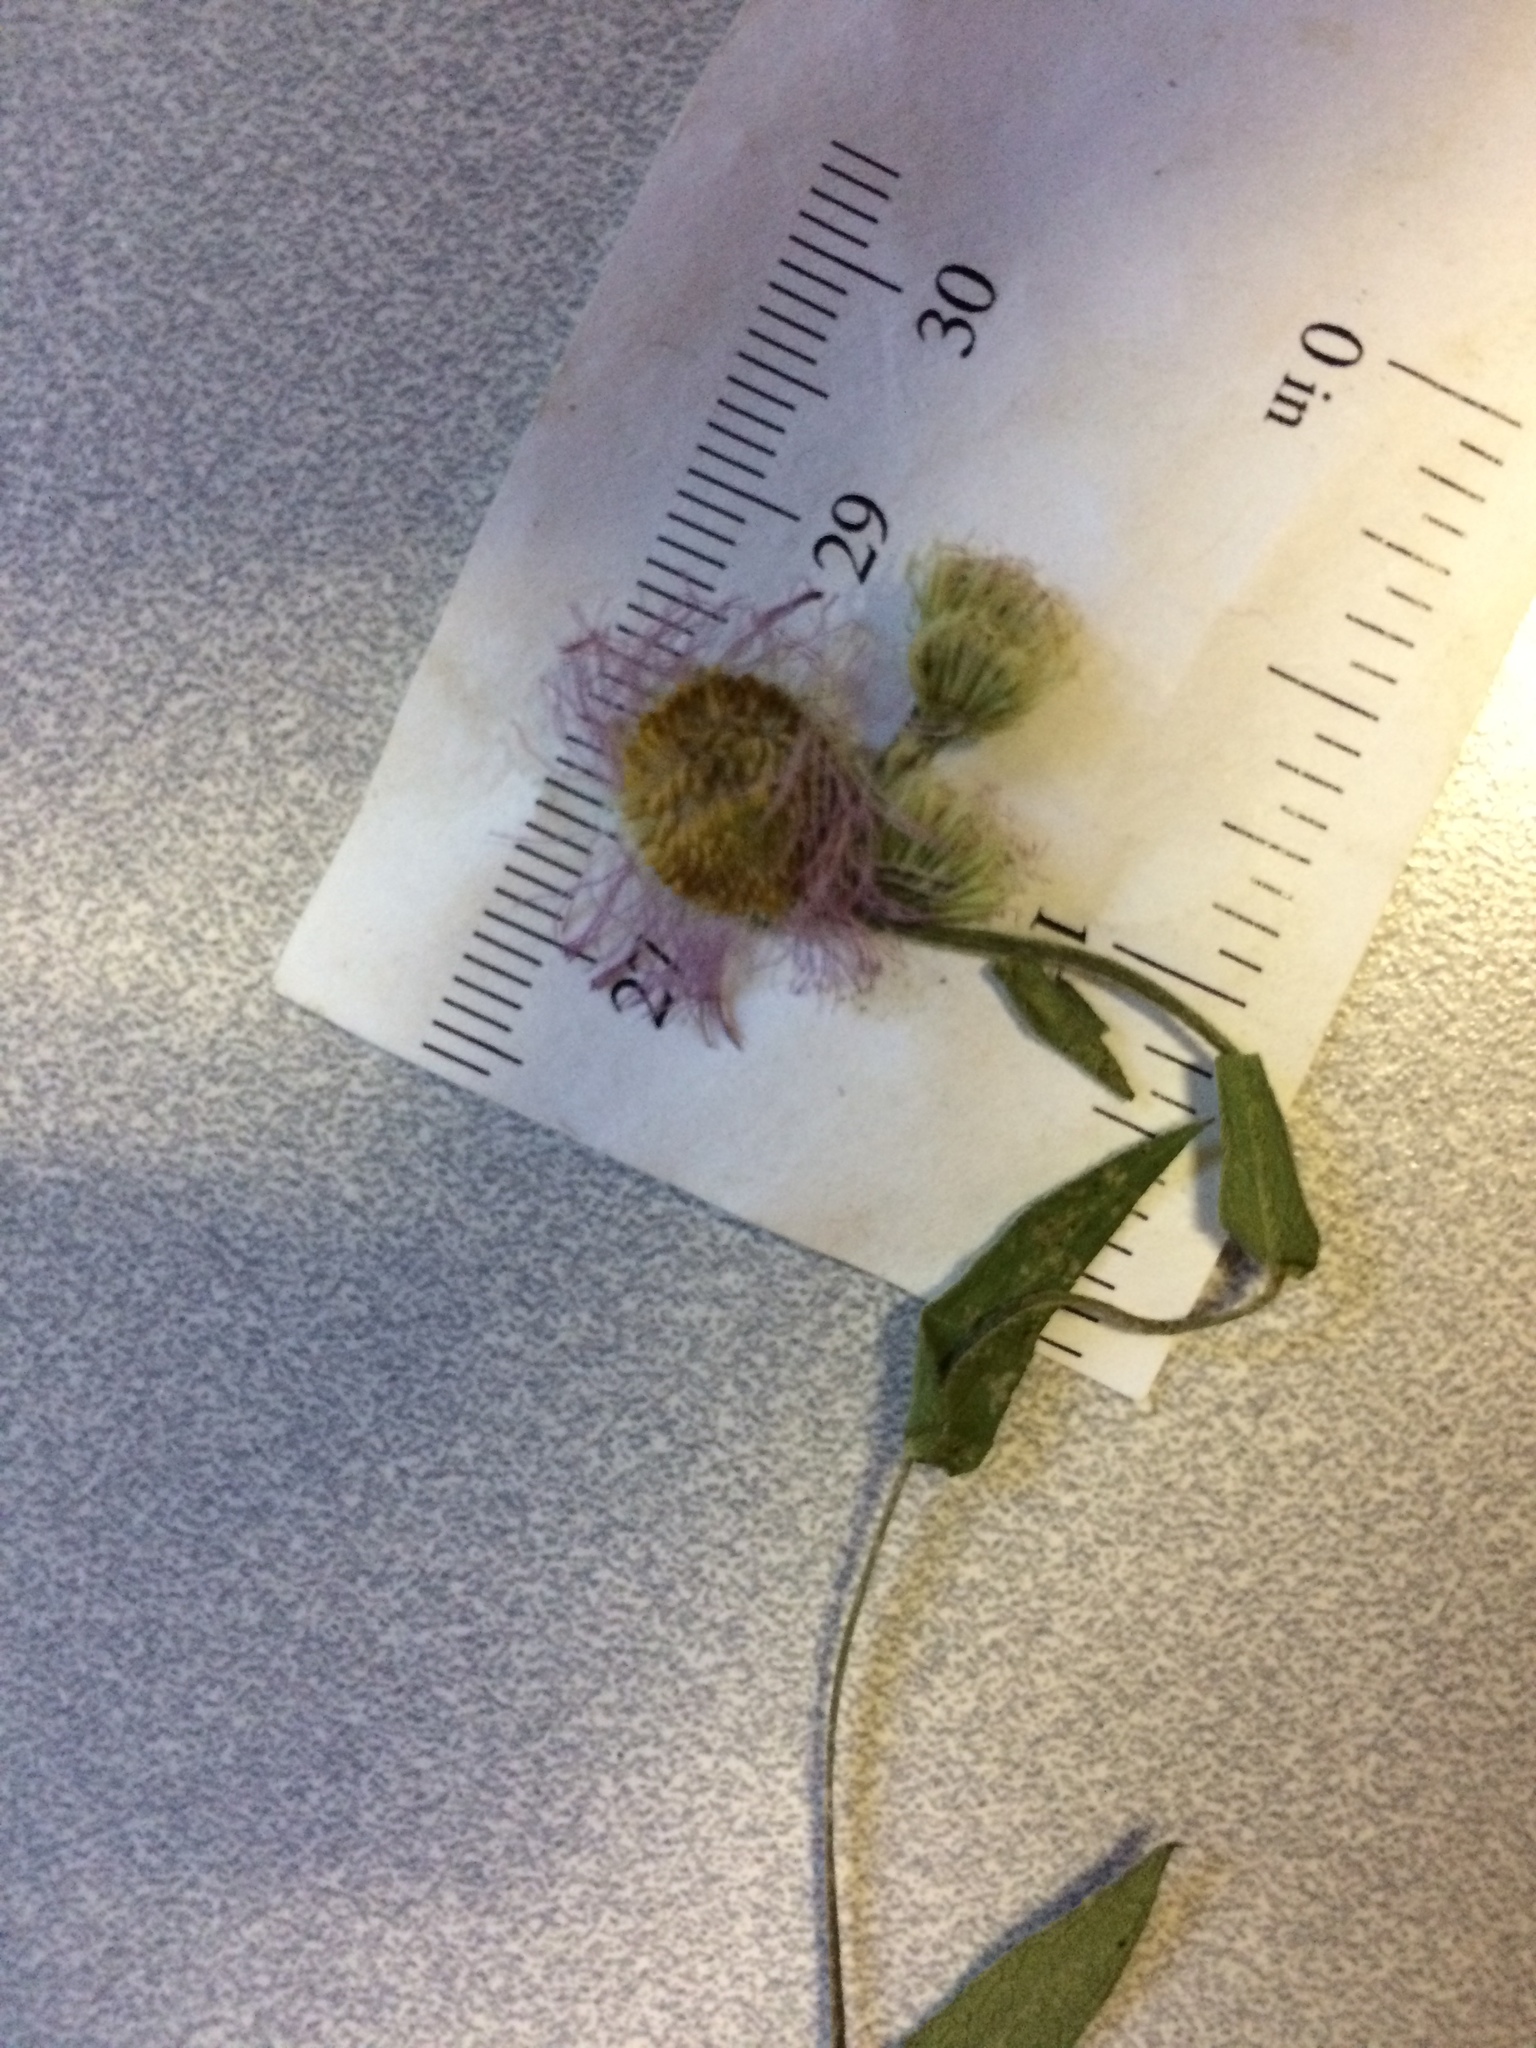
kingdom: Plantae
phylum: Tracheophyta
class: Magnoliopsida
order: Asterales
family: Asteraceae
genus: Erigeron
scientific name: Erigeron philadelphicus
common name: Robin's-plantain
